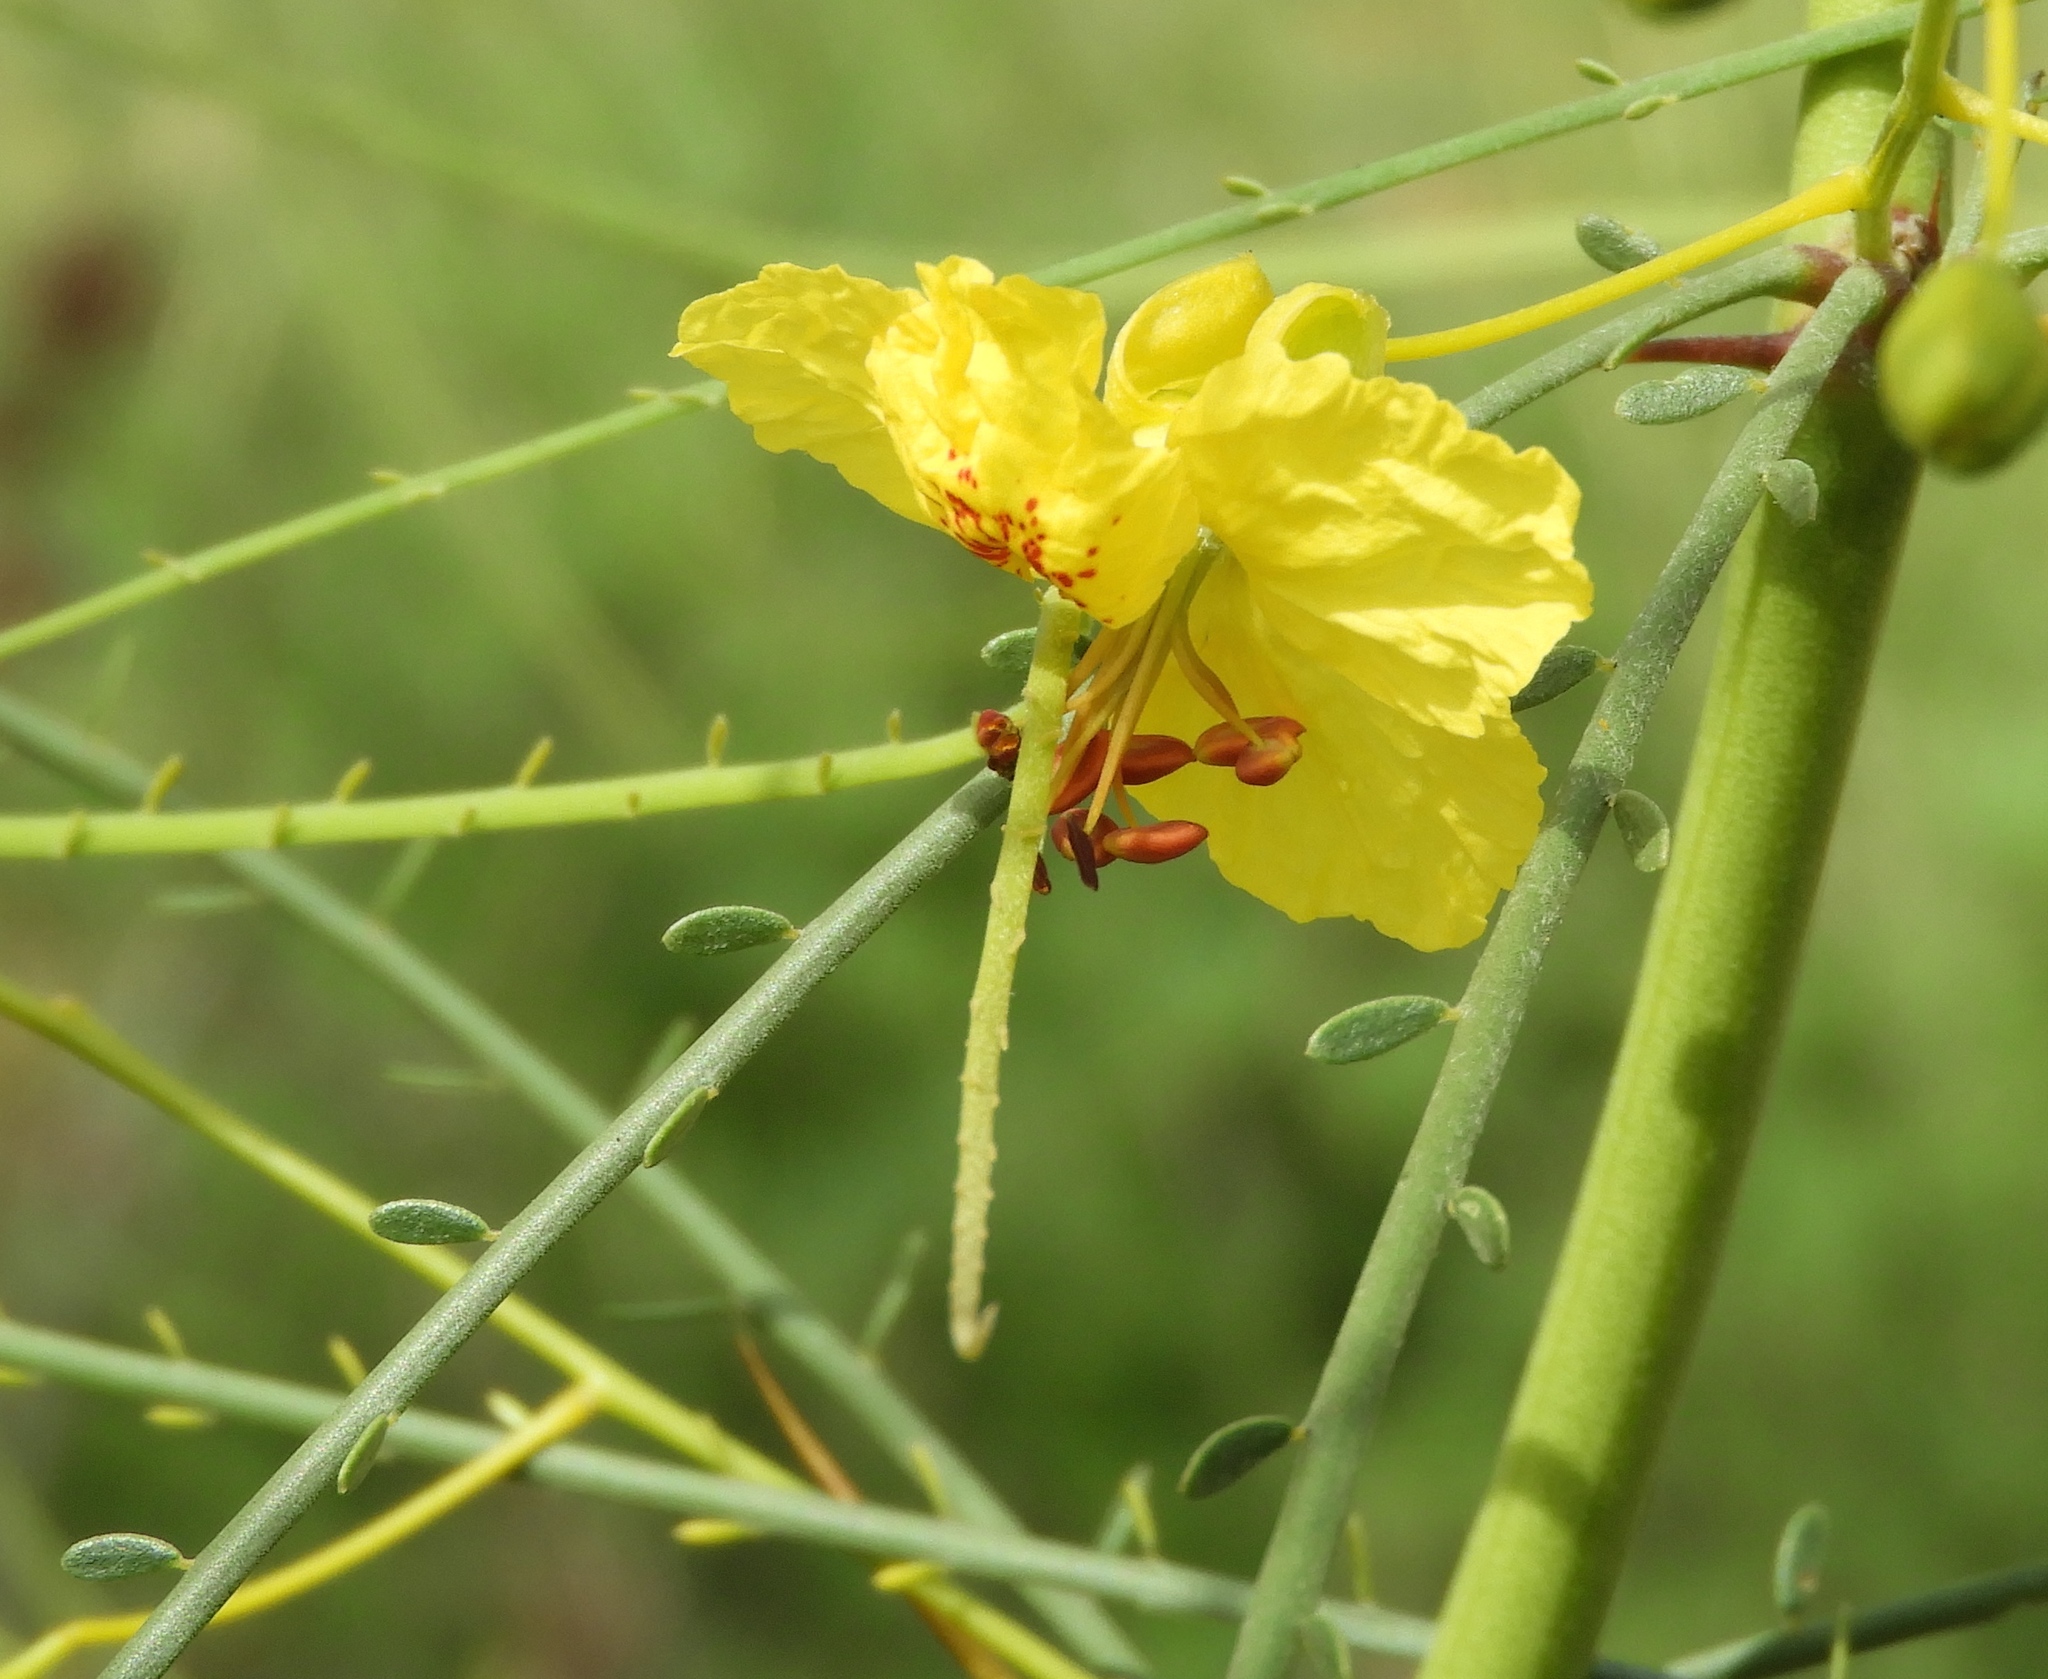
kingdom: Plantae
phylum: Tracheophyta
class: Magnoliopsida
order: Fabales
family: Fabaceae
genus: Parkinsonia
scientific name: Parkinsonia aculeata
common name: Jerusalem thorn
